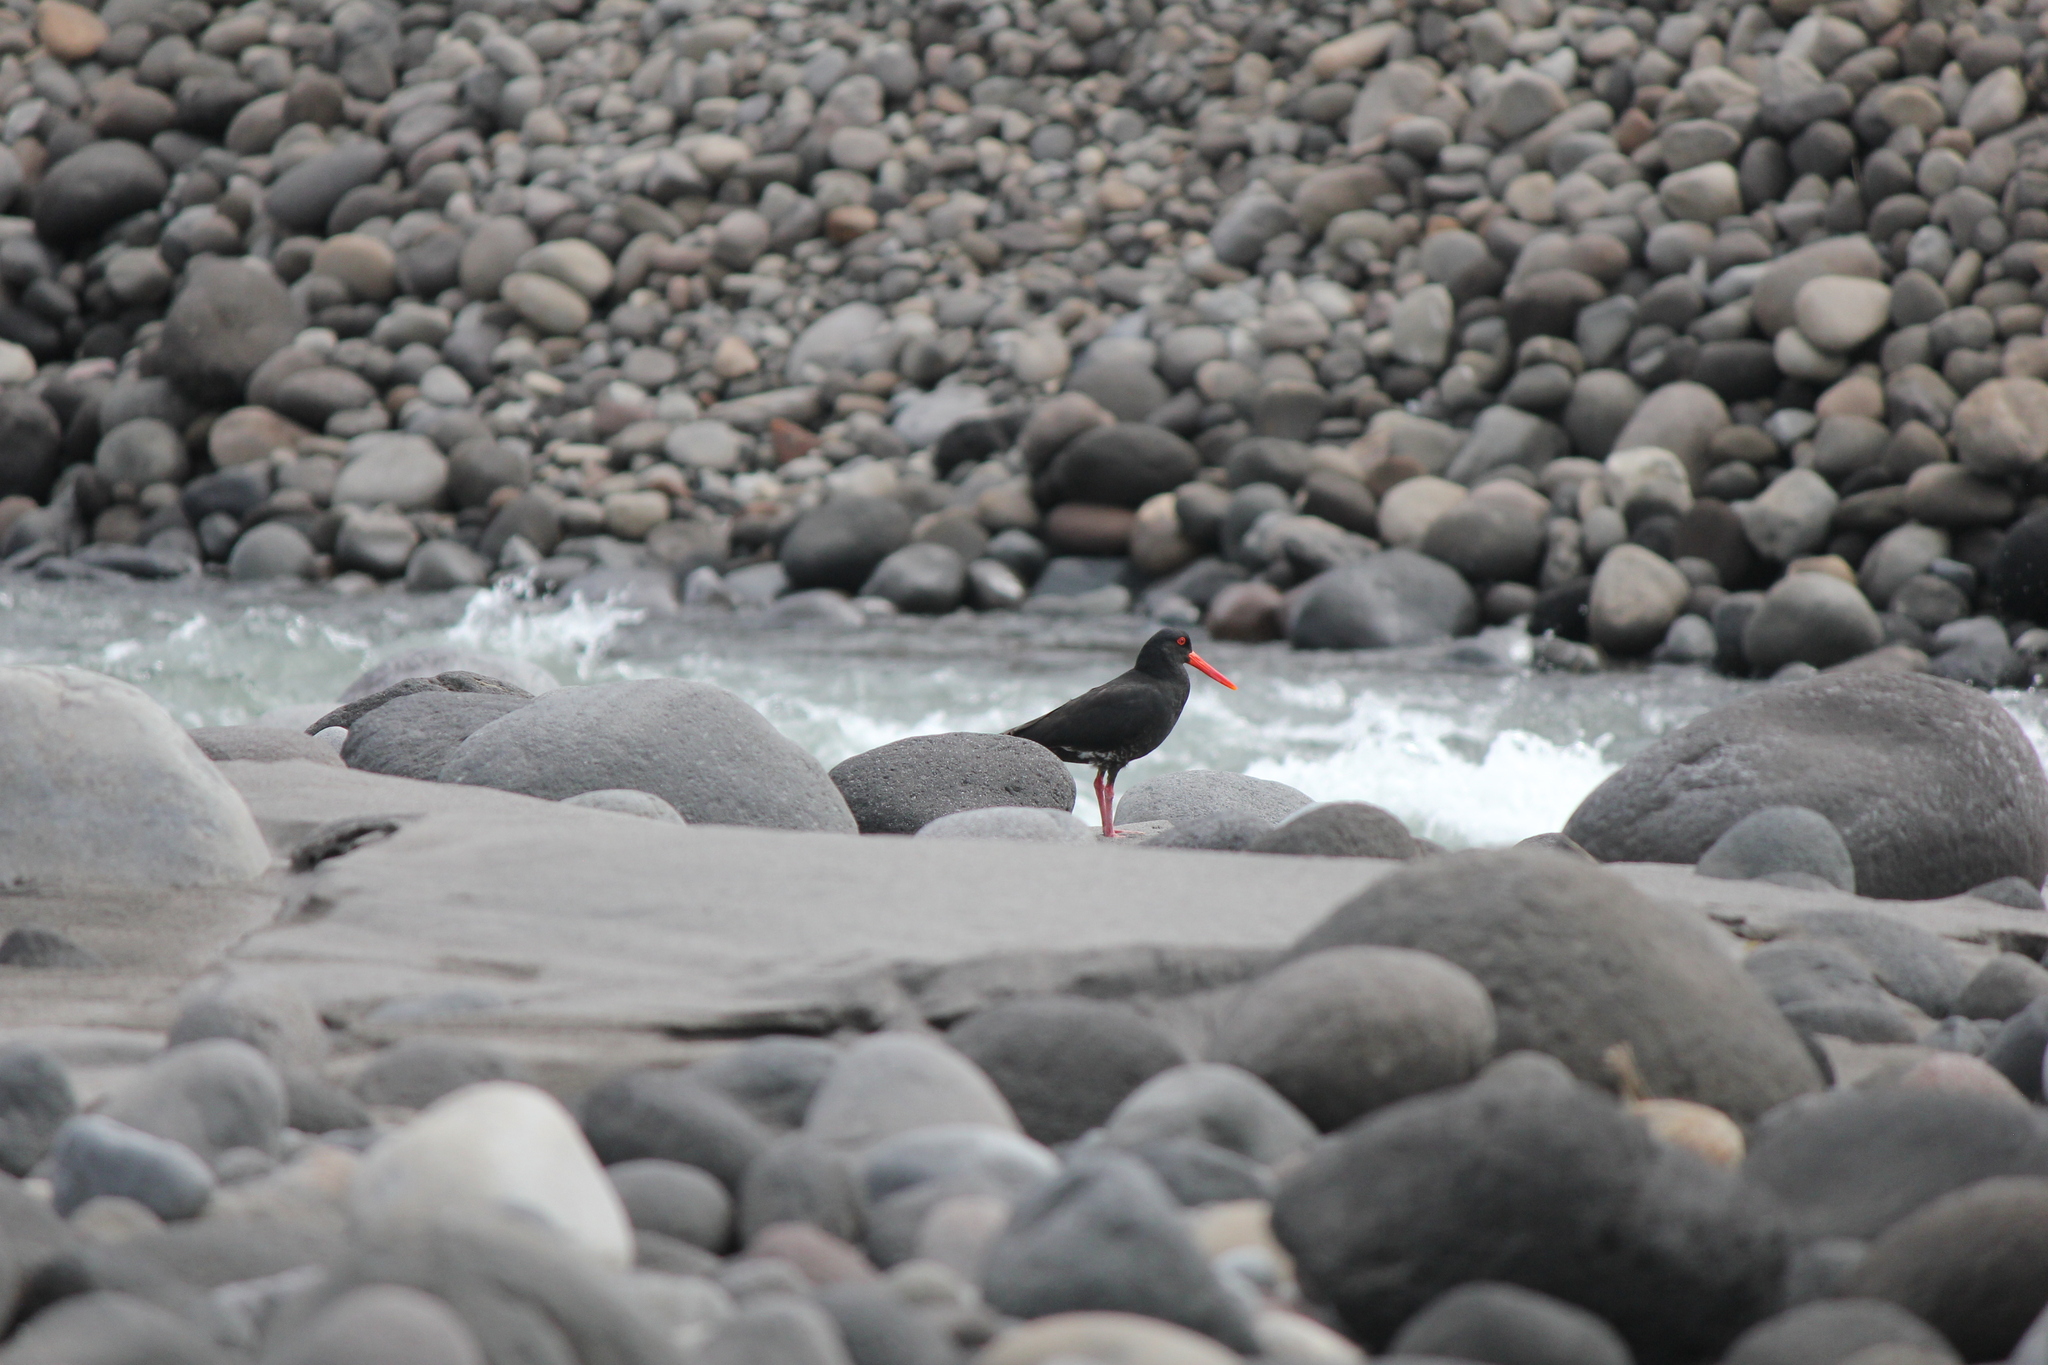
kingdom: Animalia
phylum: Chordata
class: Aves
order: Charadriiformes
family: Haematopodidae
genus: Haematopus
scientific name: Haematopus unicolor
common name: Variable oystercatcher
